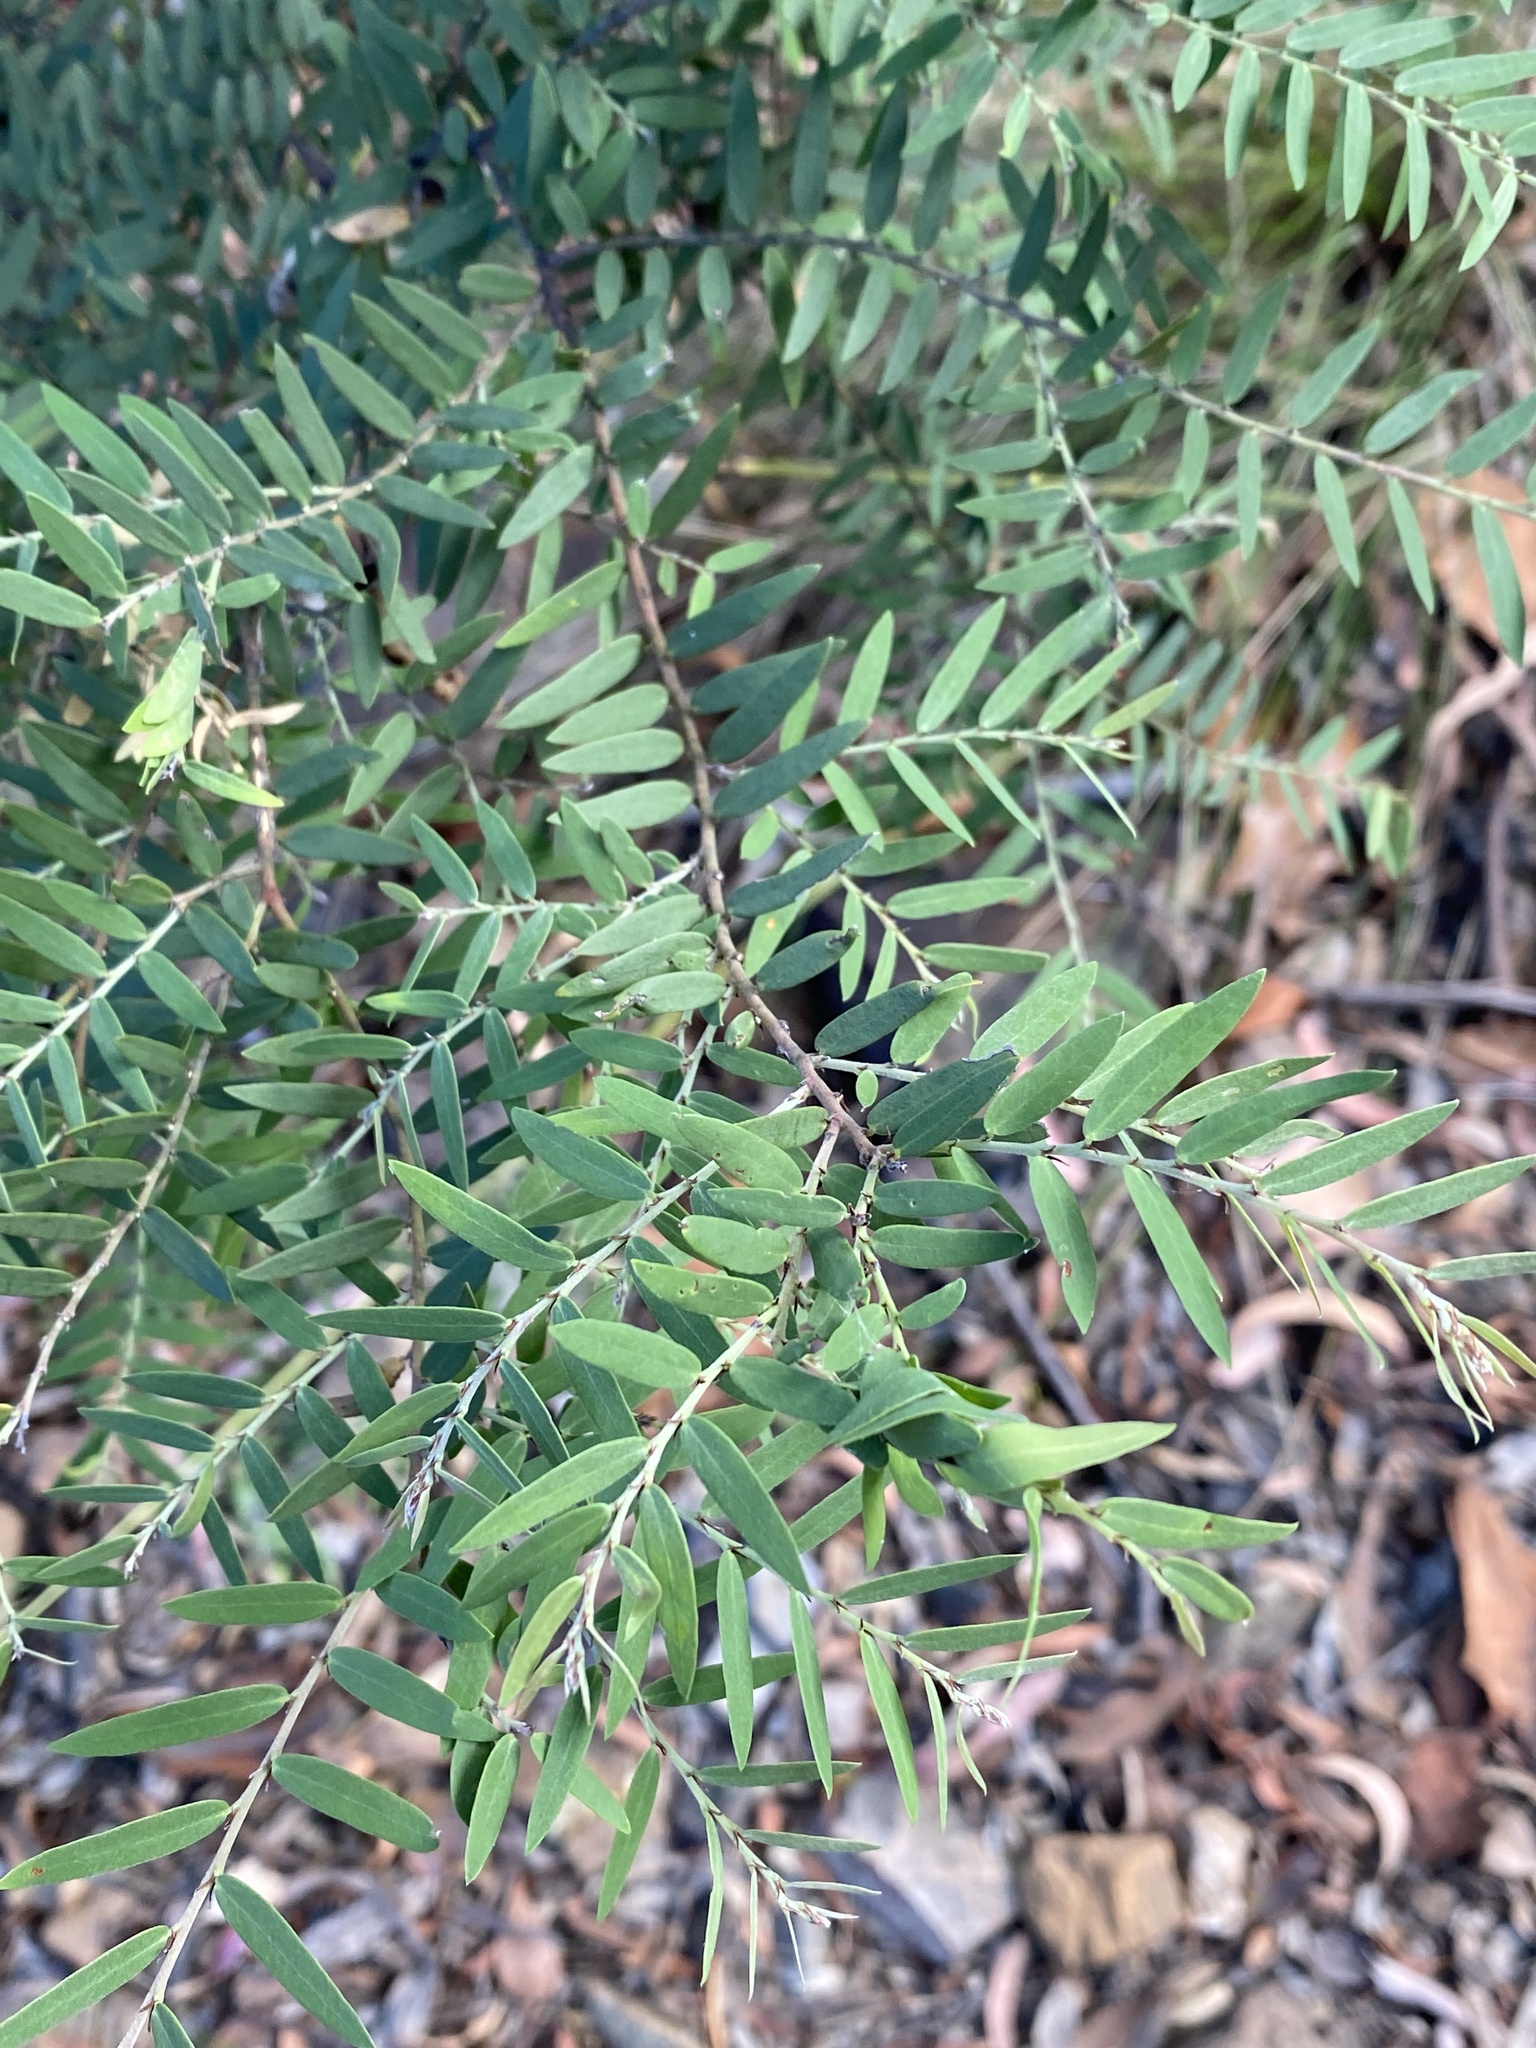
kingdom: Plantae
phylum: Tracheophyta
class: Magnoliopsida
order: Fabales
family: Fabaceae
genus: Bossiaea
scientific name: Bossiaea rupicola
